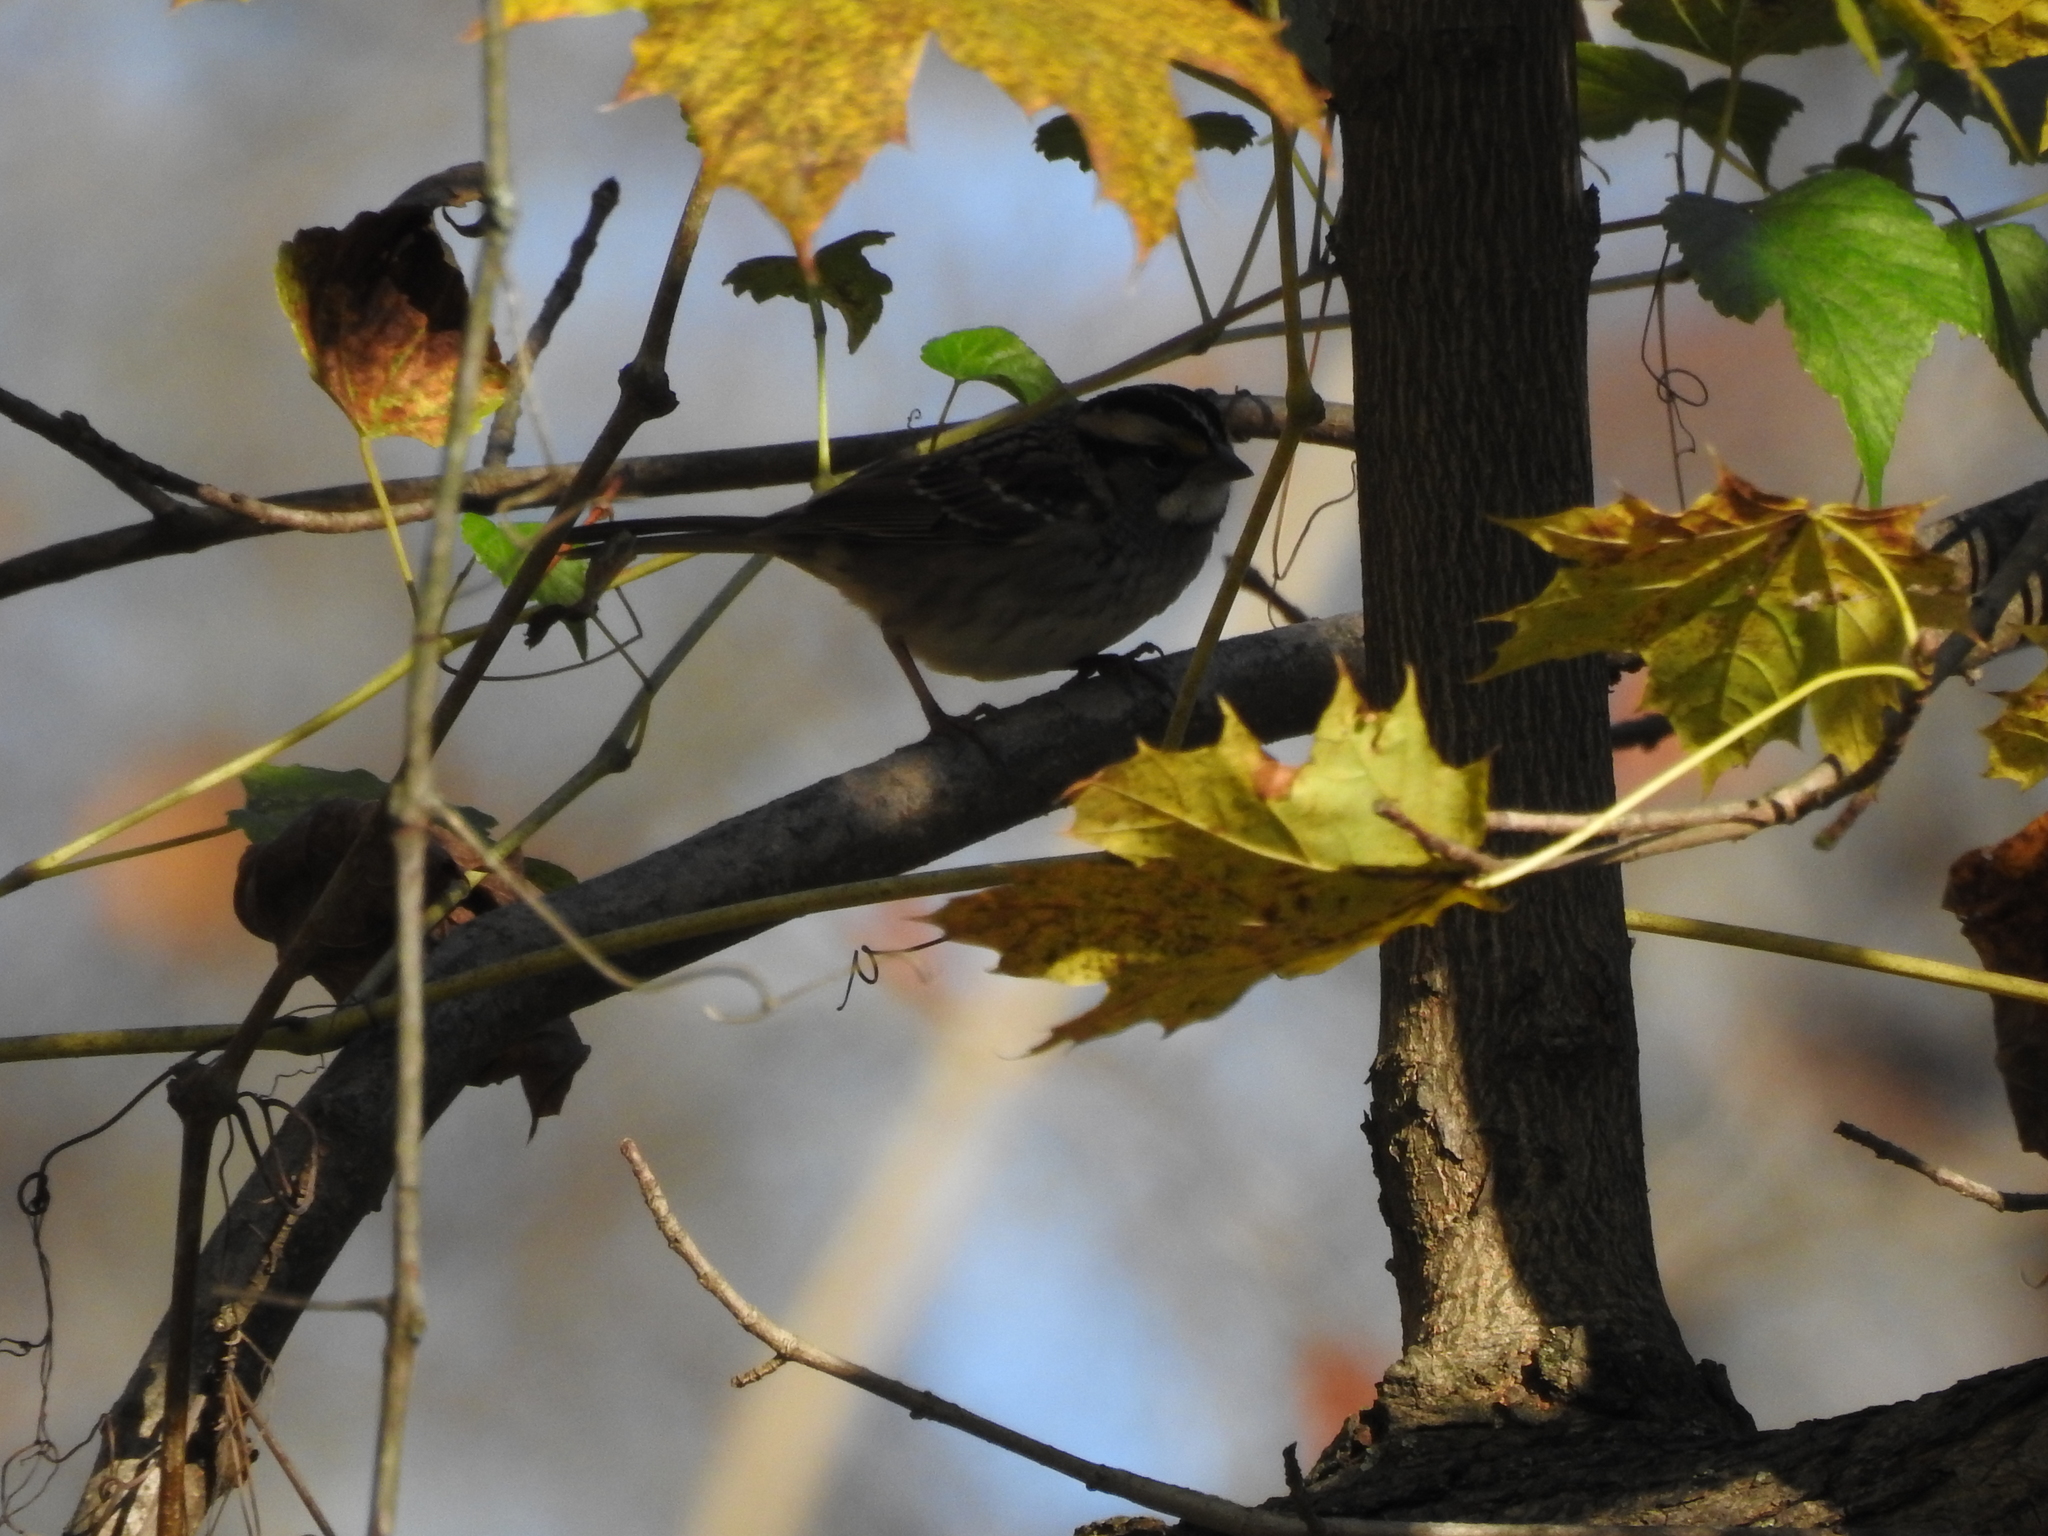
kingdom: Animalia
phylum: Chordata
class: Aves
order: Passeriformes
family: Passerellidae
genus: Zonotrichia
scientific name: Zonotrichia albicollis
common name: White-throated sparrow
